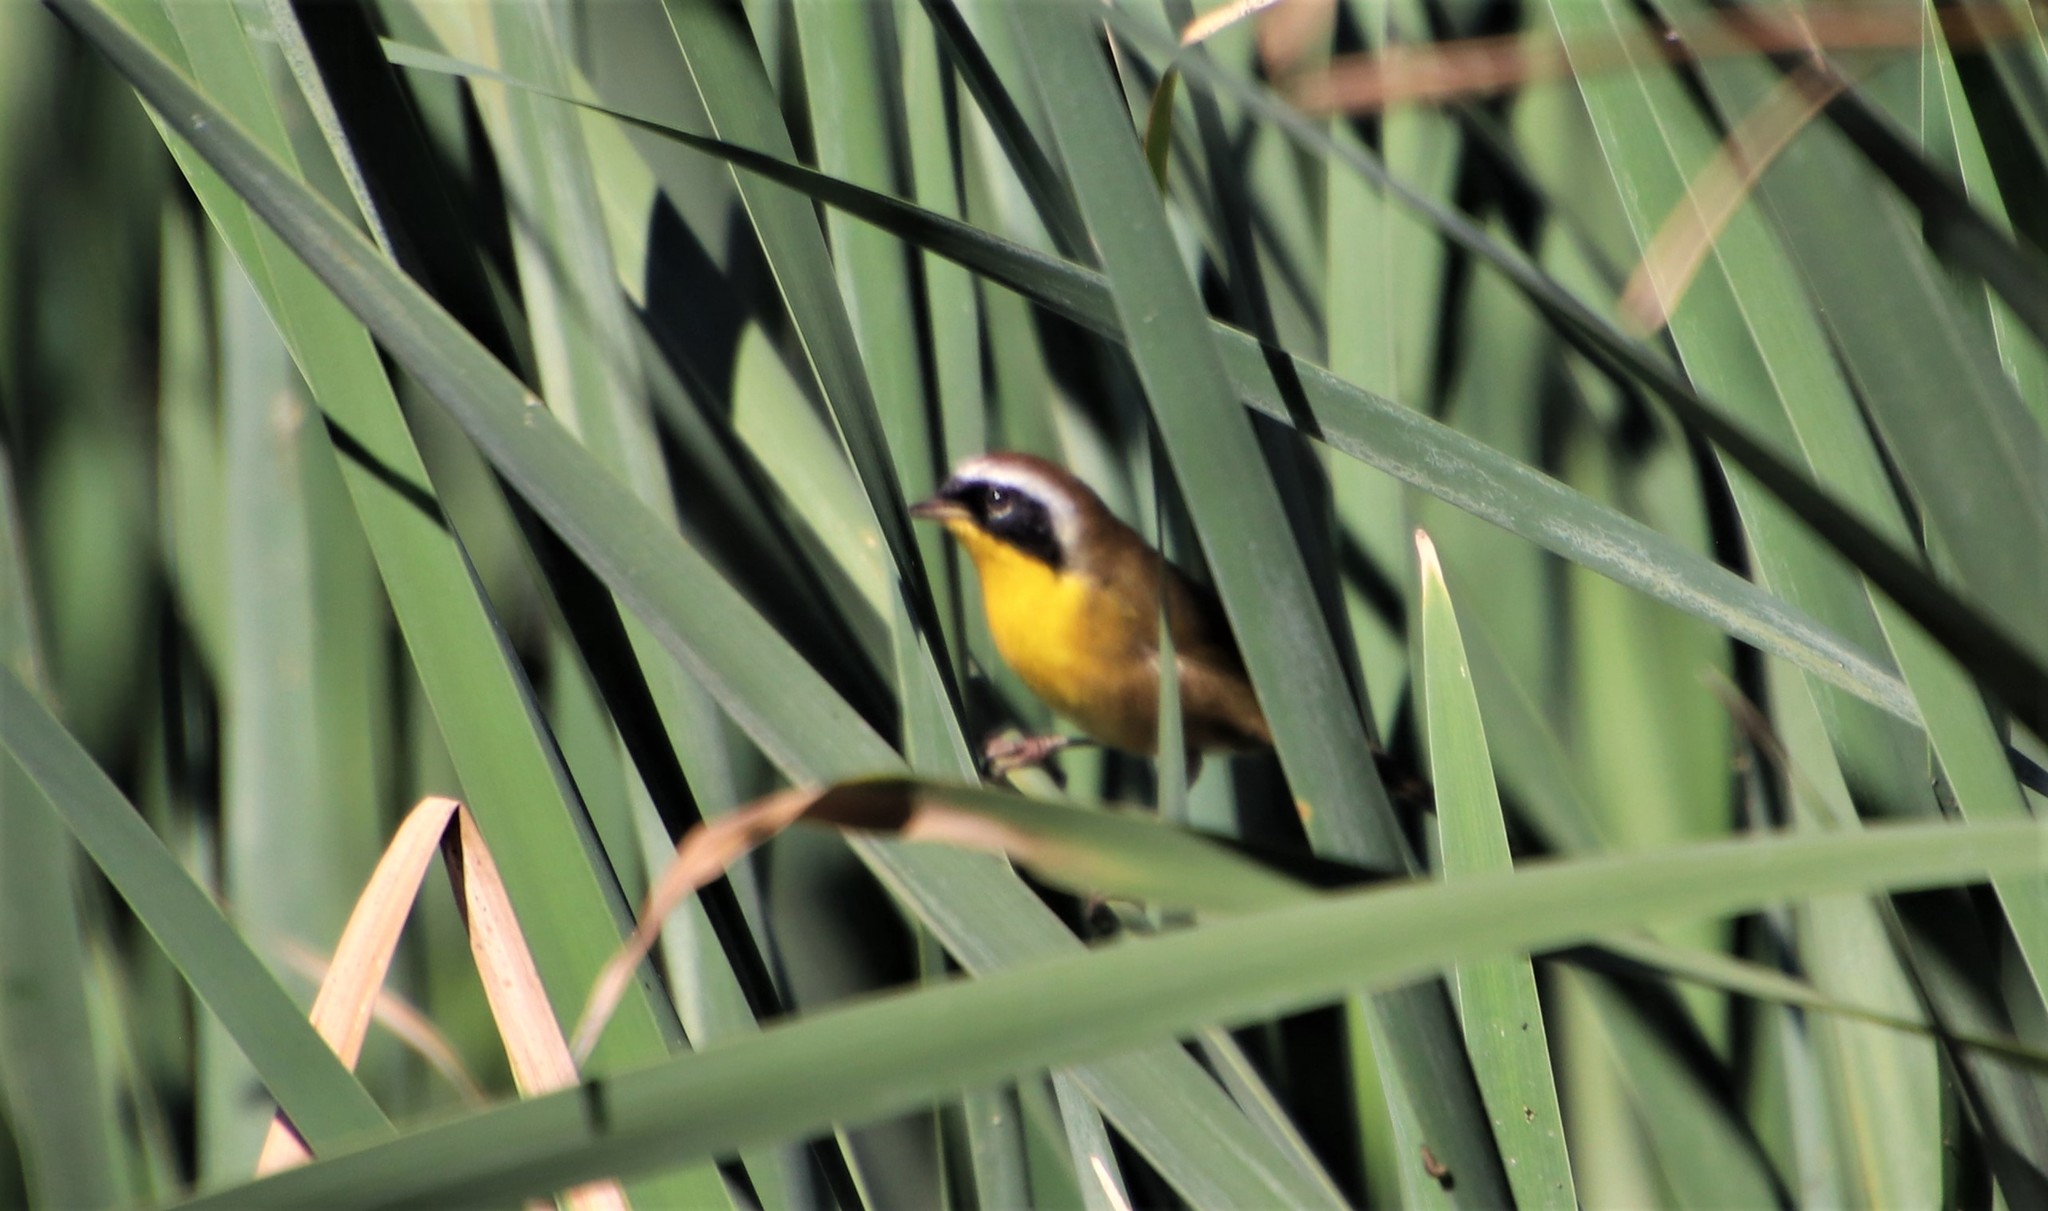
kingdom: Animalia
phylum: Chordata
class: Aves
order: Passeriformes
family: Parulidae
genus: Geothlypis
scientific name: Geothlypis trichas
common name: Common yellowthroat
